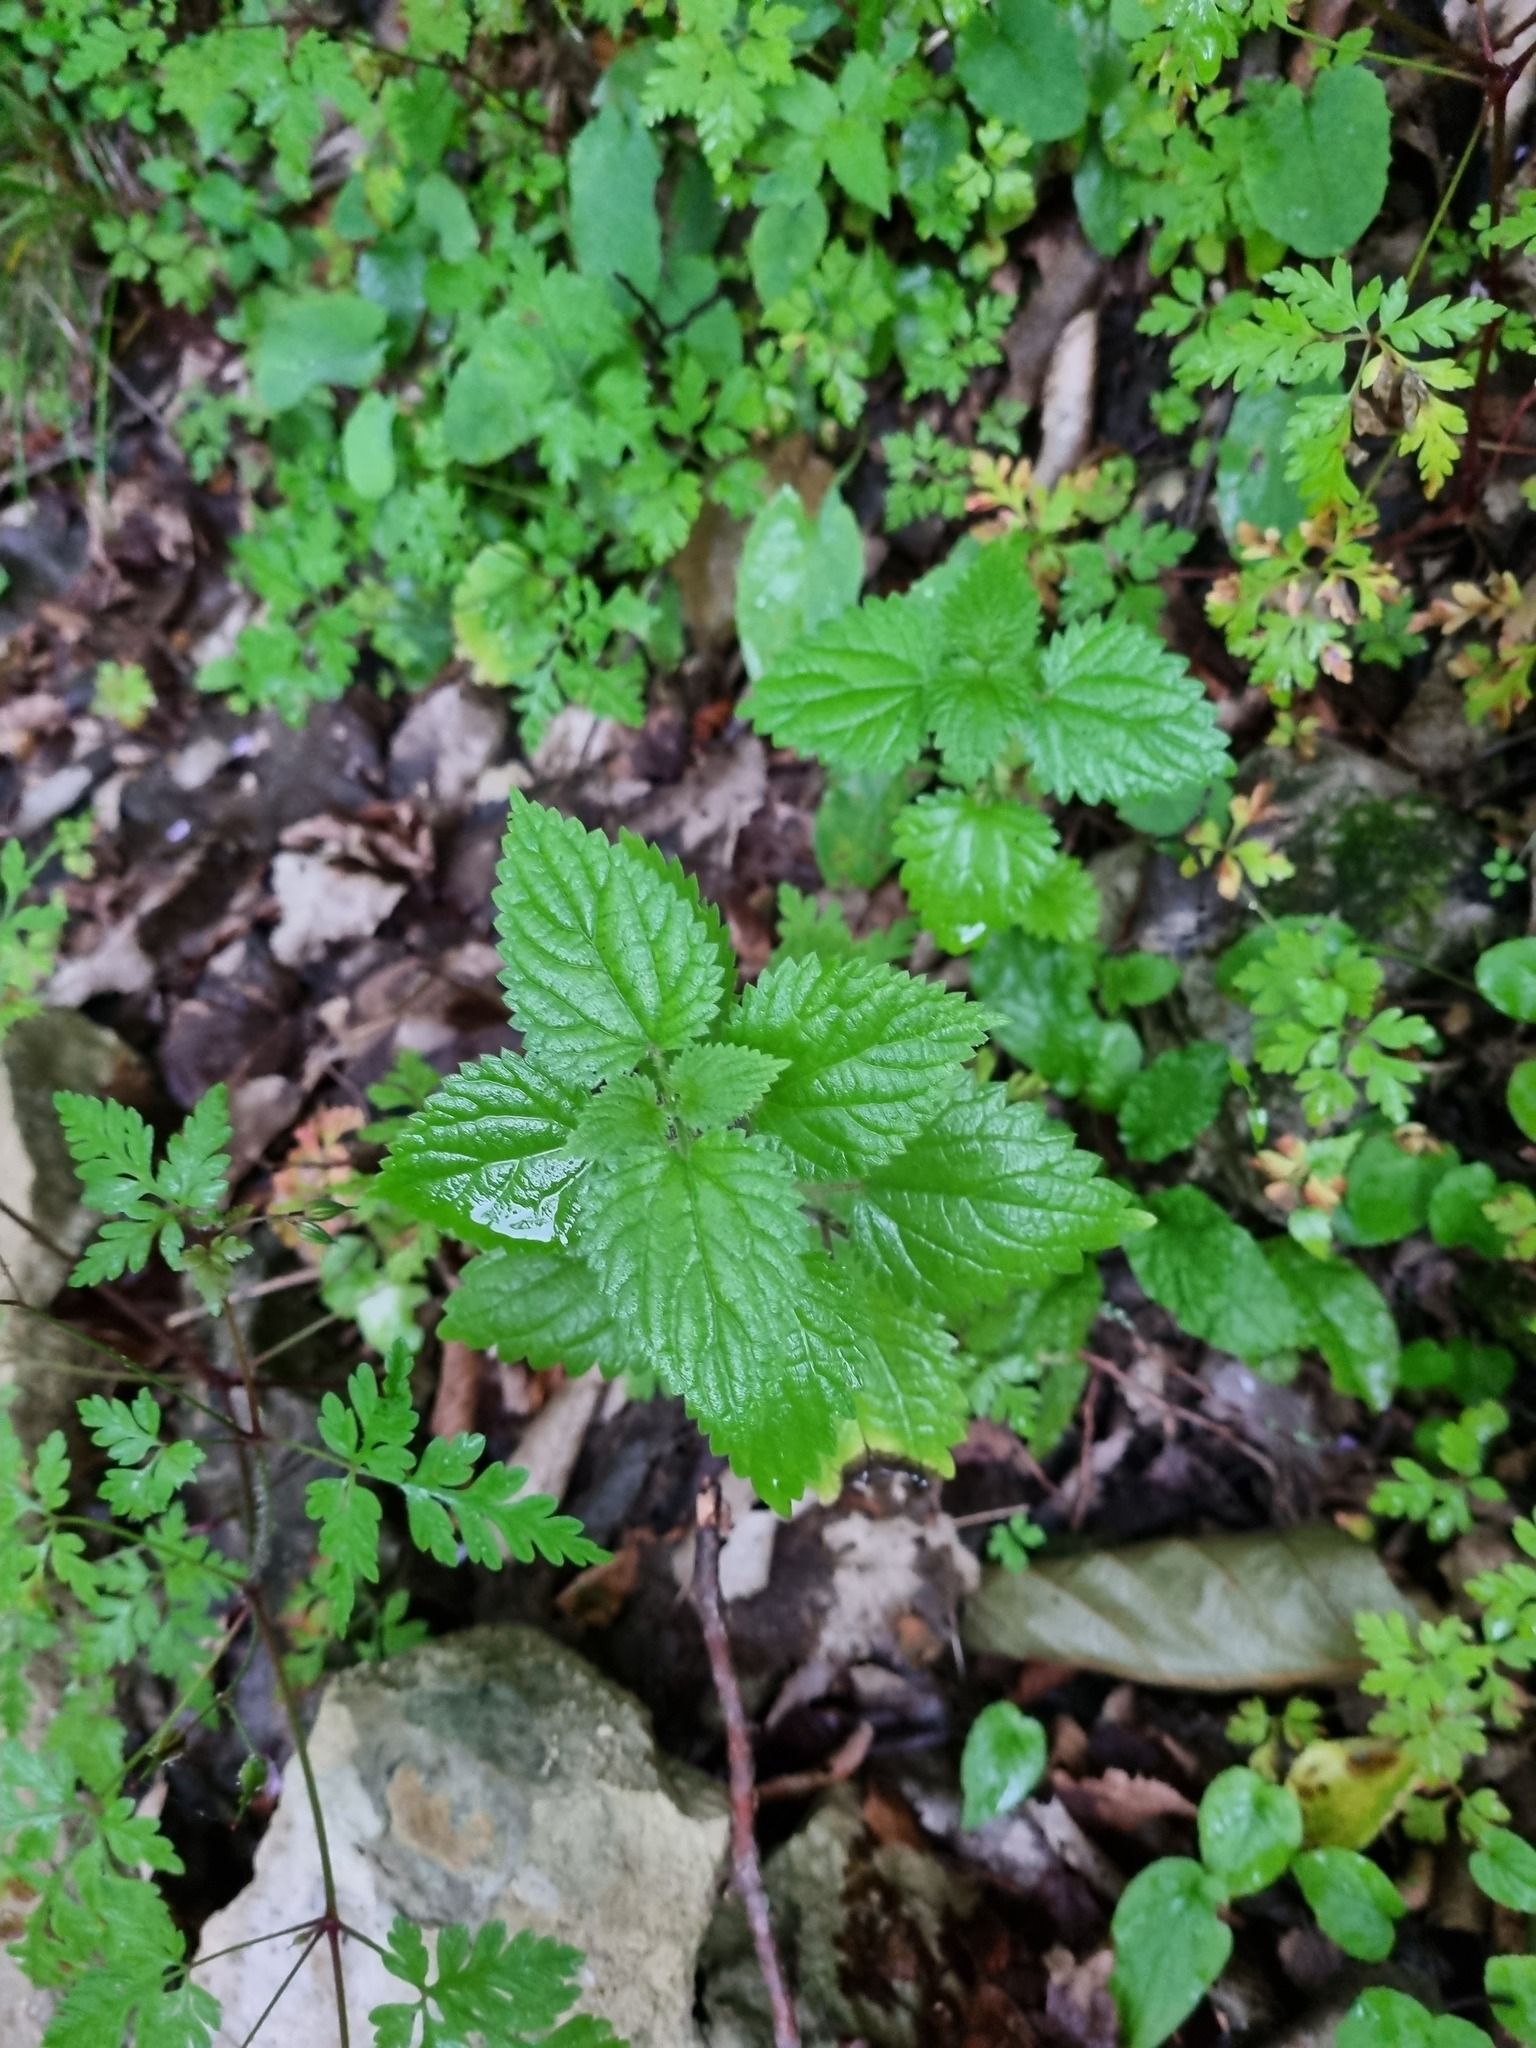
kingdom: Plantae
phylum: Tracheophyta
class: Magnoliopsida
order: Rosales
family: Urticaceae
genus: Urtica
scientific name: Urtica dioica
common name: Common nettle
